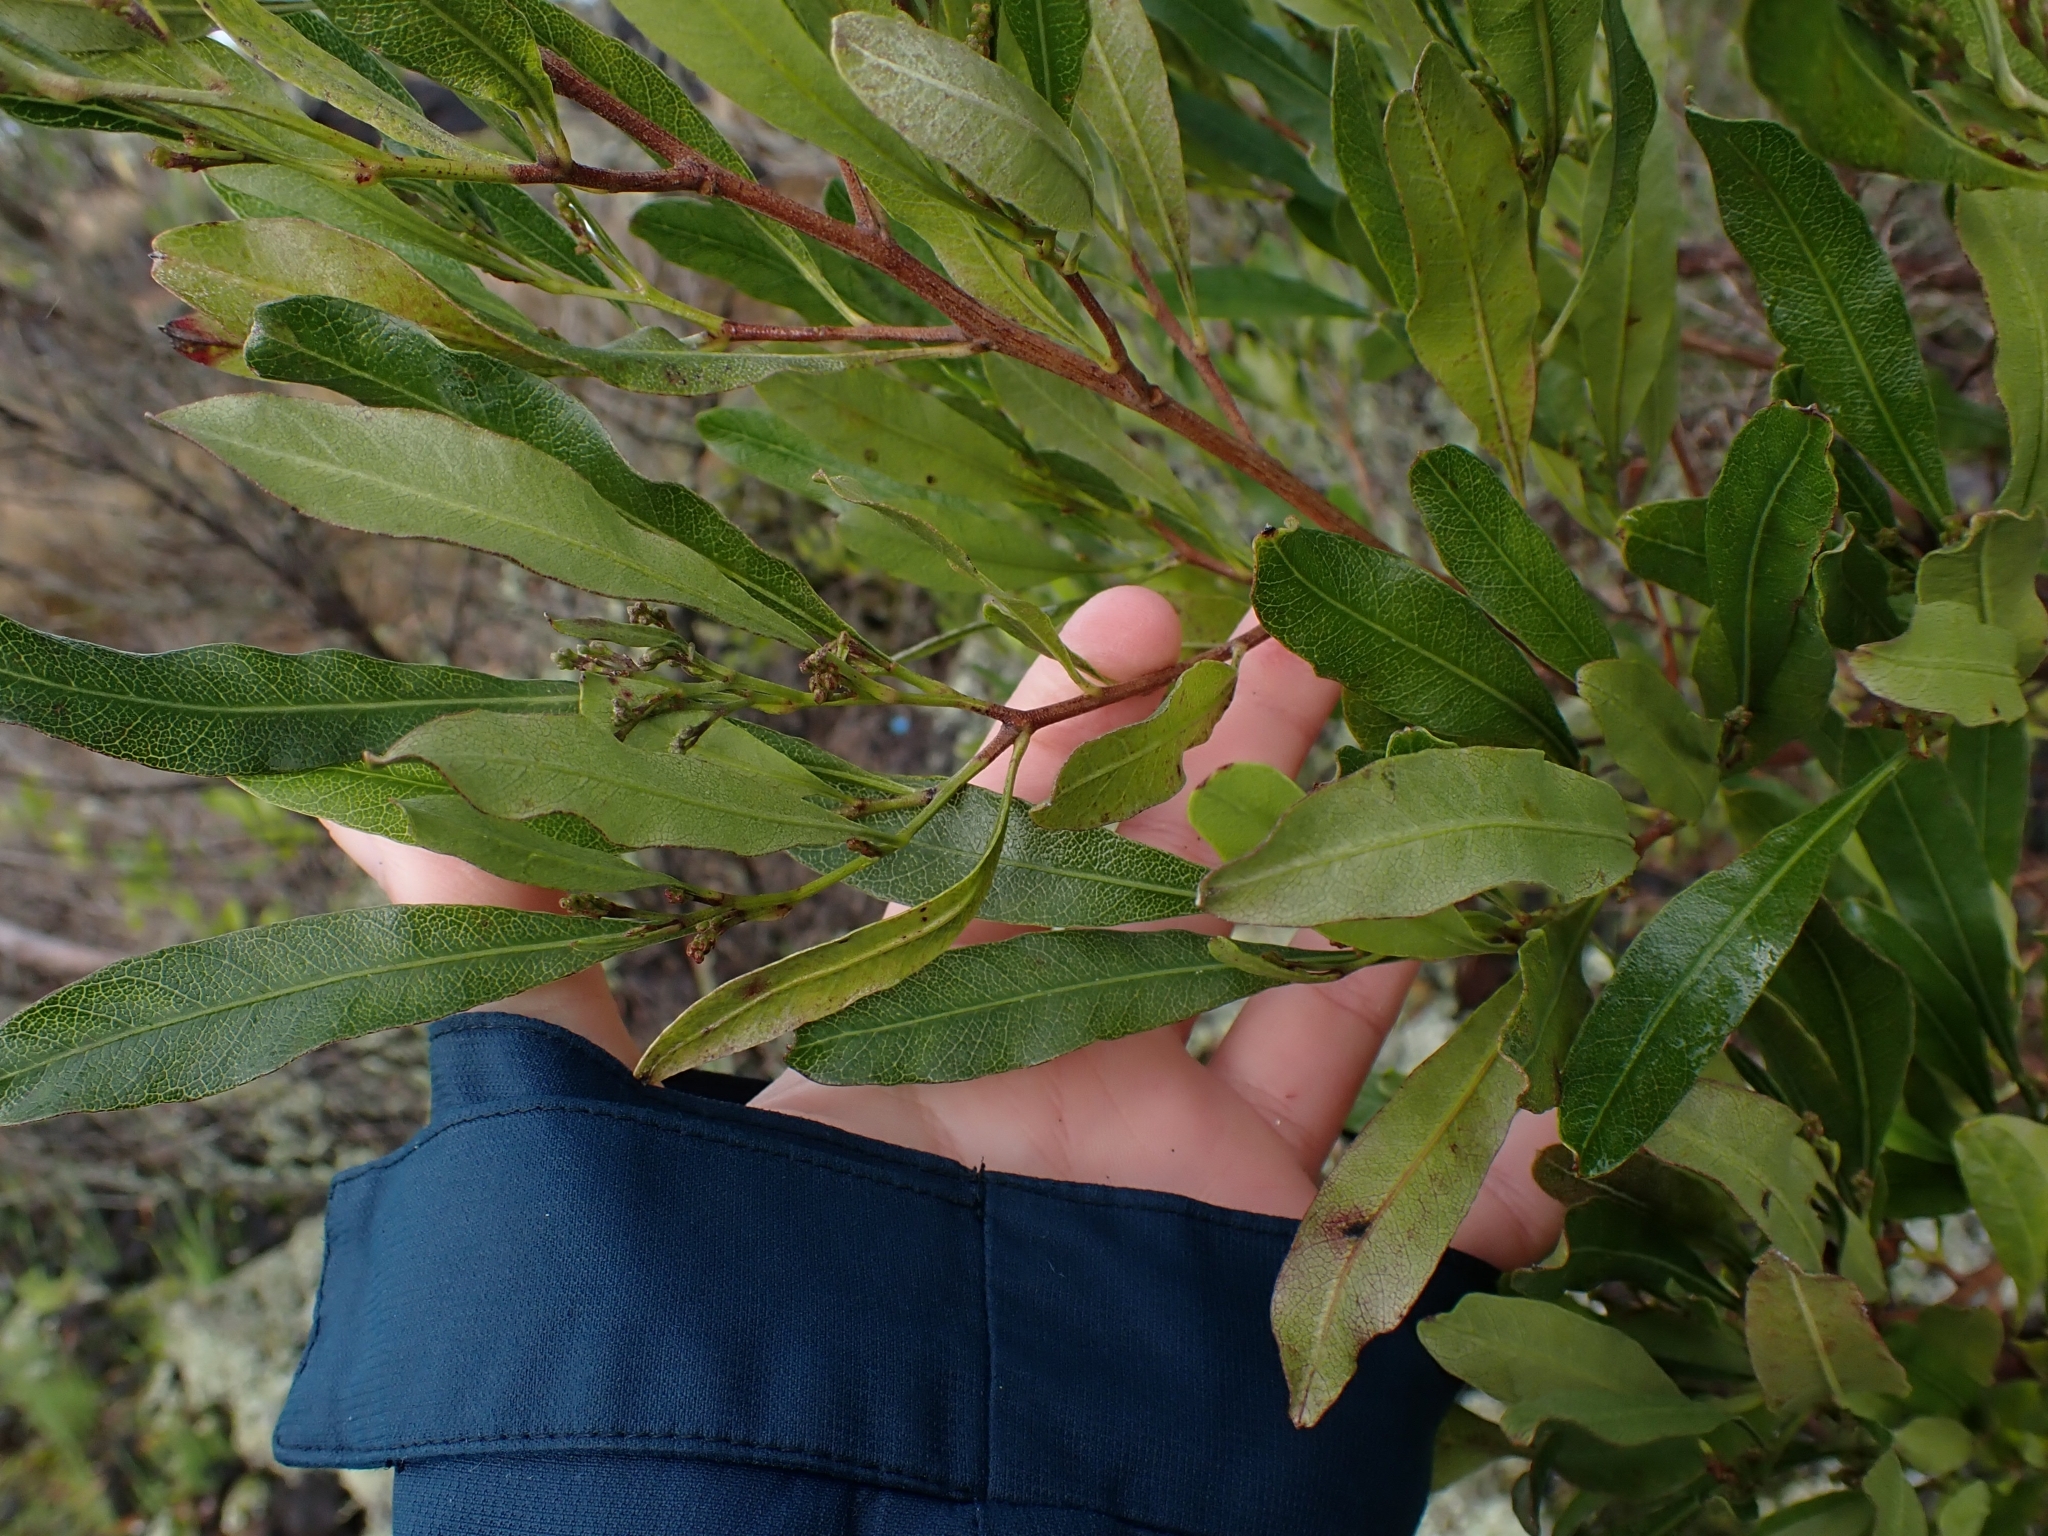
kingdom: Plantae
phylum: Tracheophyta
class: Magnoliopsida
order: Sapindales
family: Sapindaceae
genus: Dodonaea
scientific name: Dodonaea viscosa
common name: Hopbush
